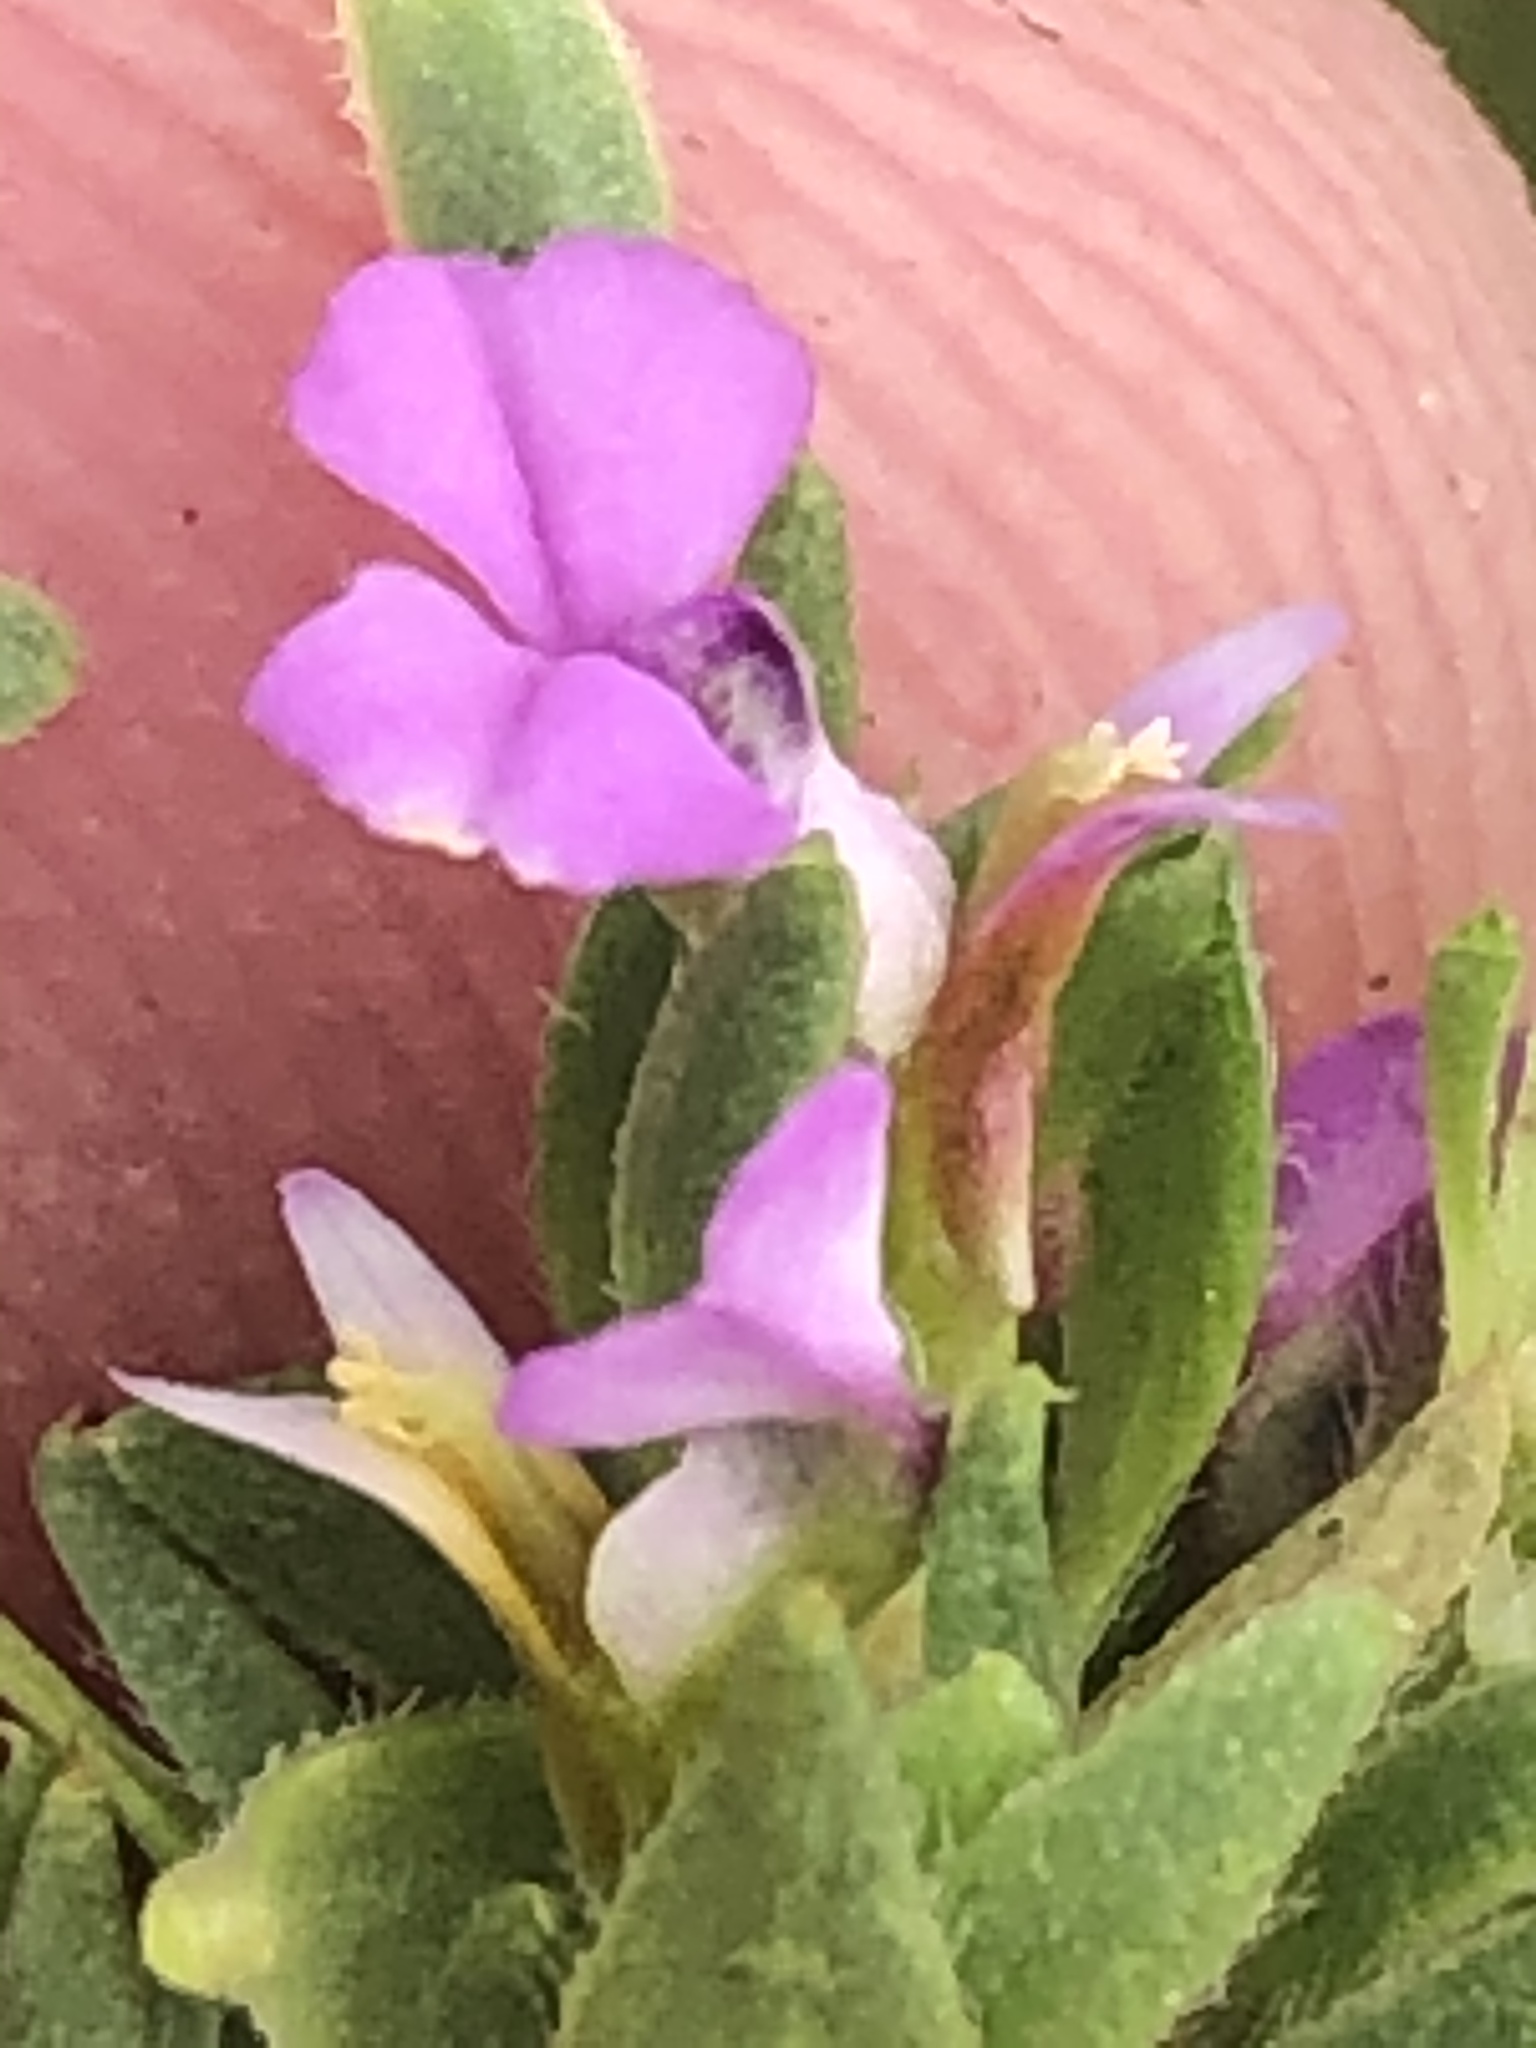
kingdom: Plantae
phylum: Tracheophyta
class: Magnoliopsida
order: Fabales
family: Polygalaceae
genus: Muraltia
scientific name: Muraltia alopecuroides
